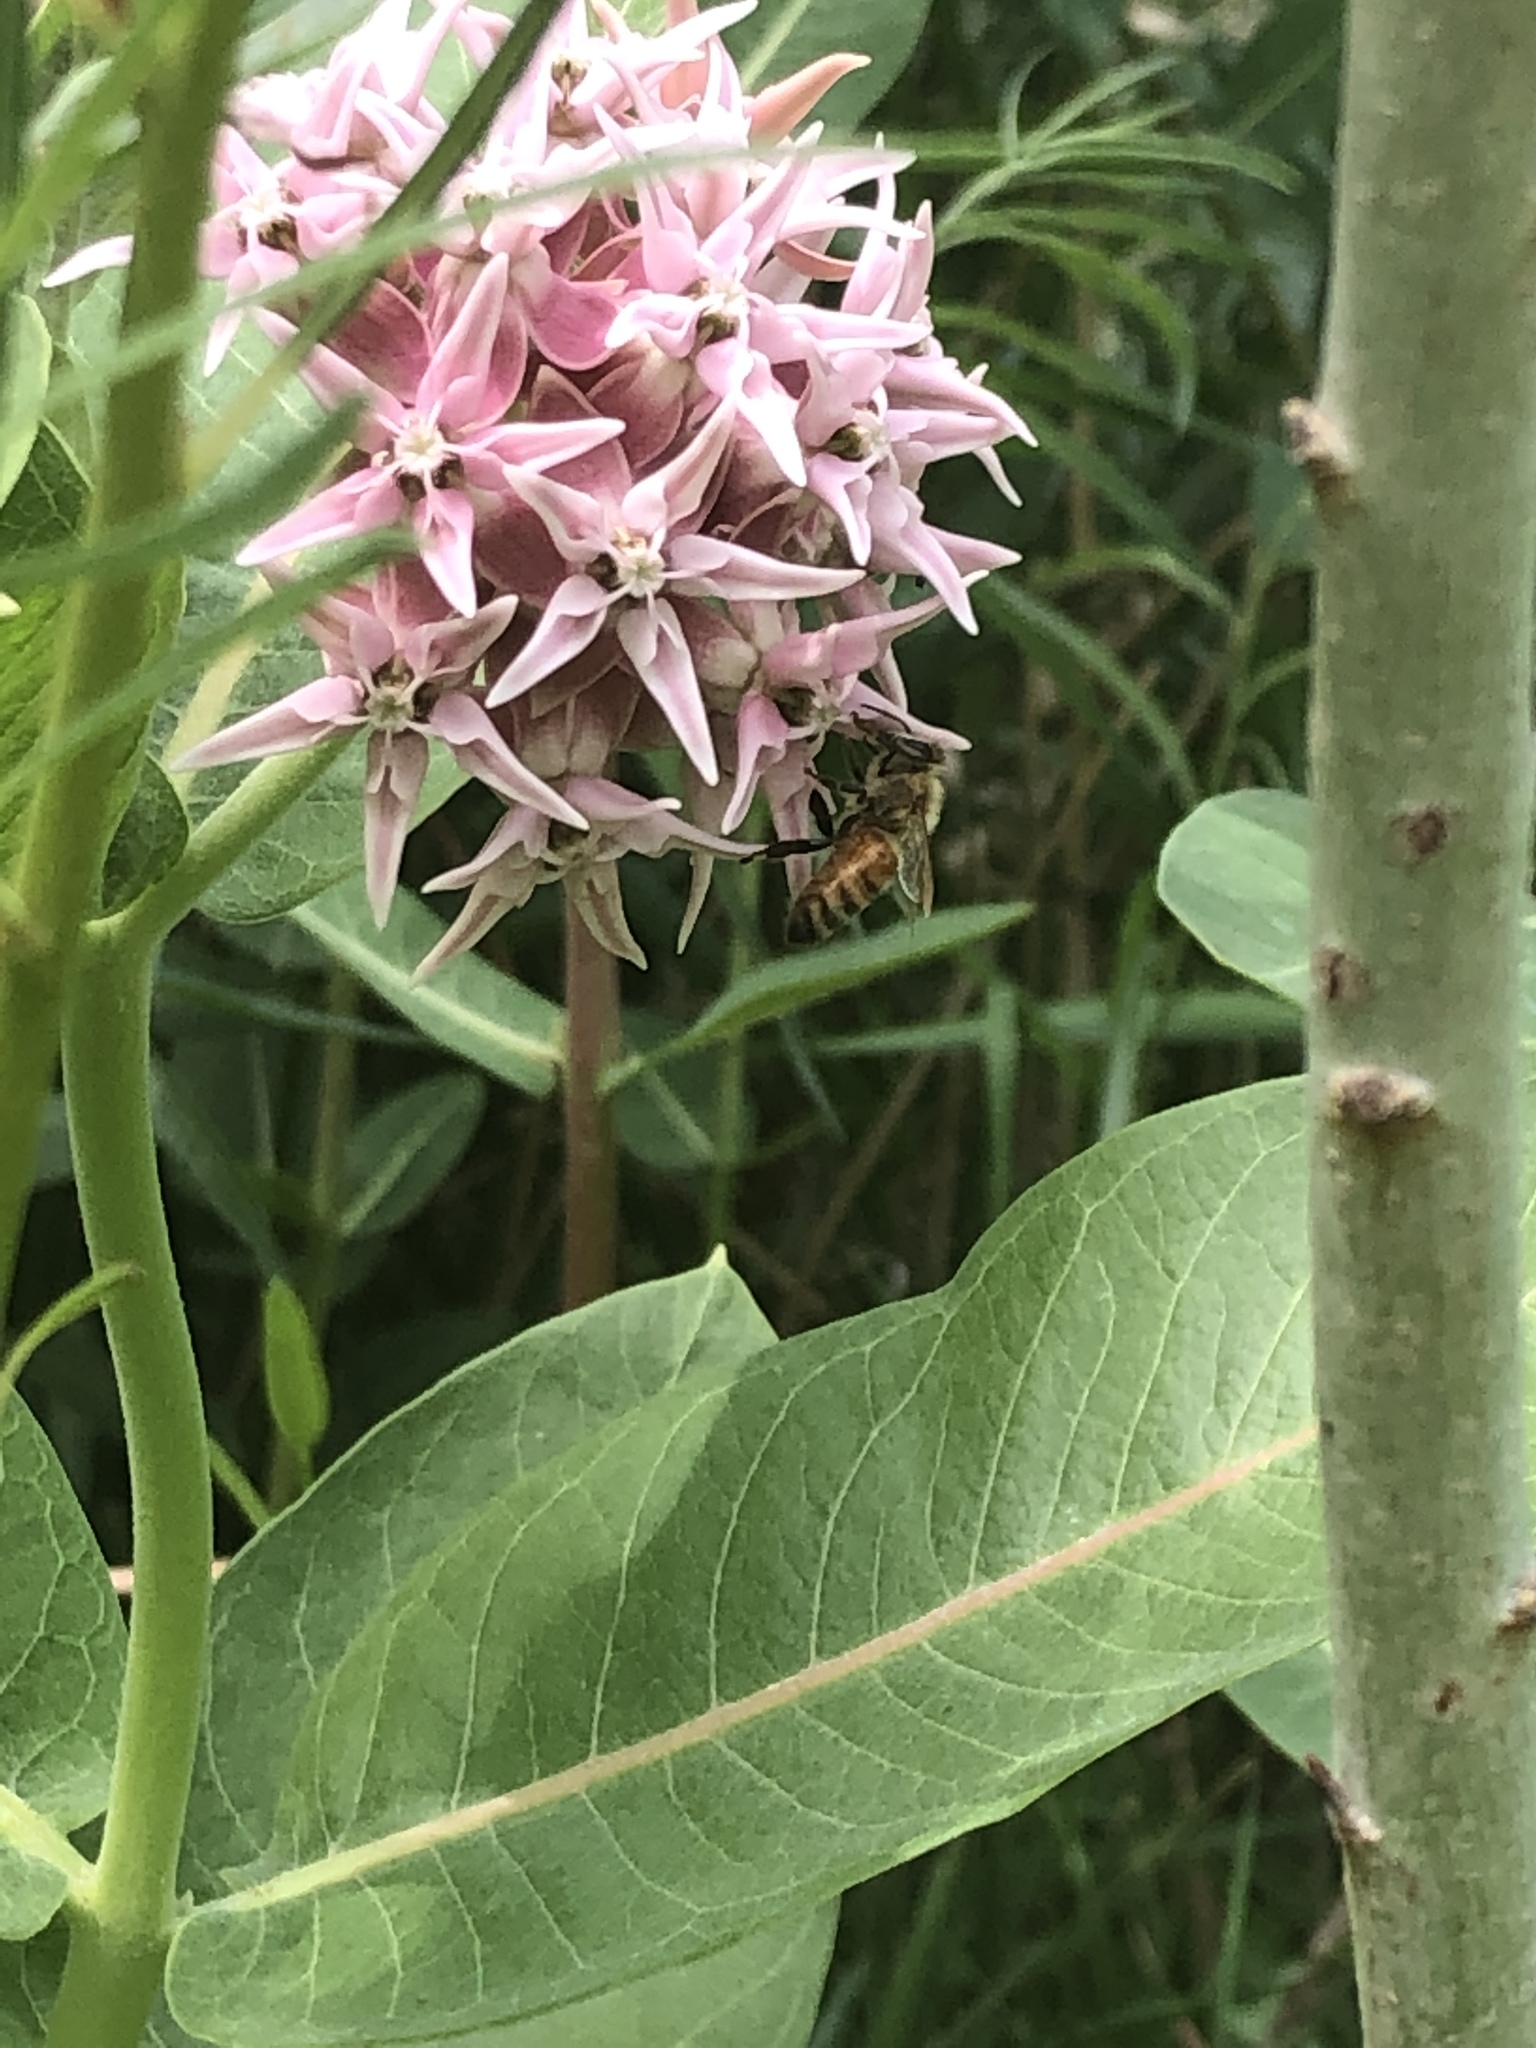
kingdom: Animalia
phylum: Arthropoda
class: Insecta
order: Hymenoptera
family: Apidae
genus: Apis
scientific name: Apis mellifera
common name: Honey bee
